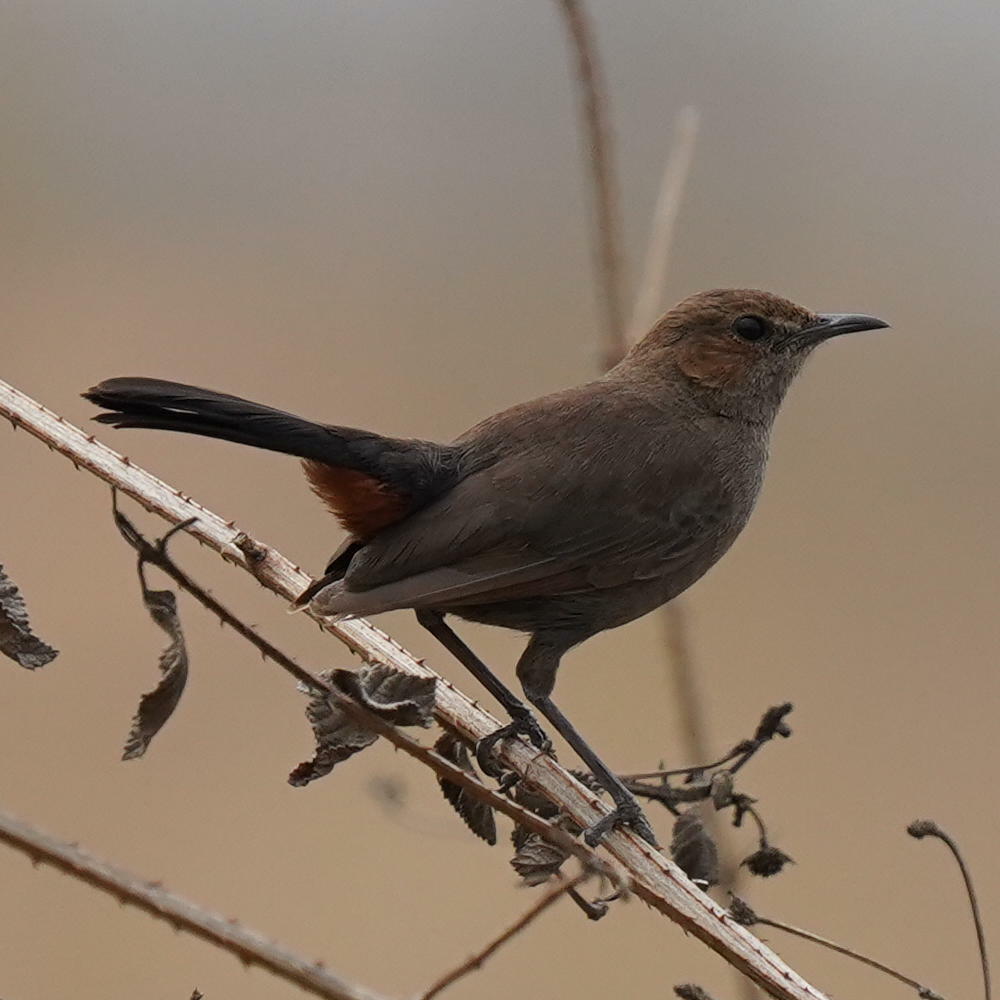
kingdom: Animalia
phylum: Chordata
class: Aves
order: Passeriformes
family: Muscicapidae
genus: Saxicoloides
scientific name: Saxicoloides fulicatus
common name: Indian robin
